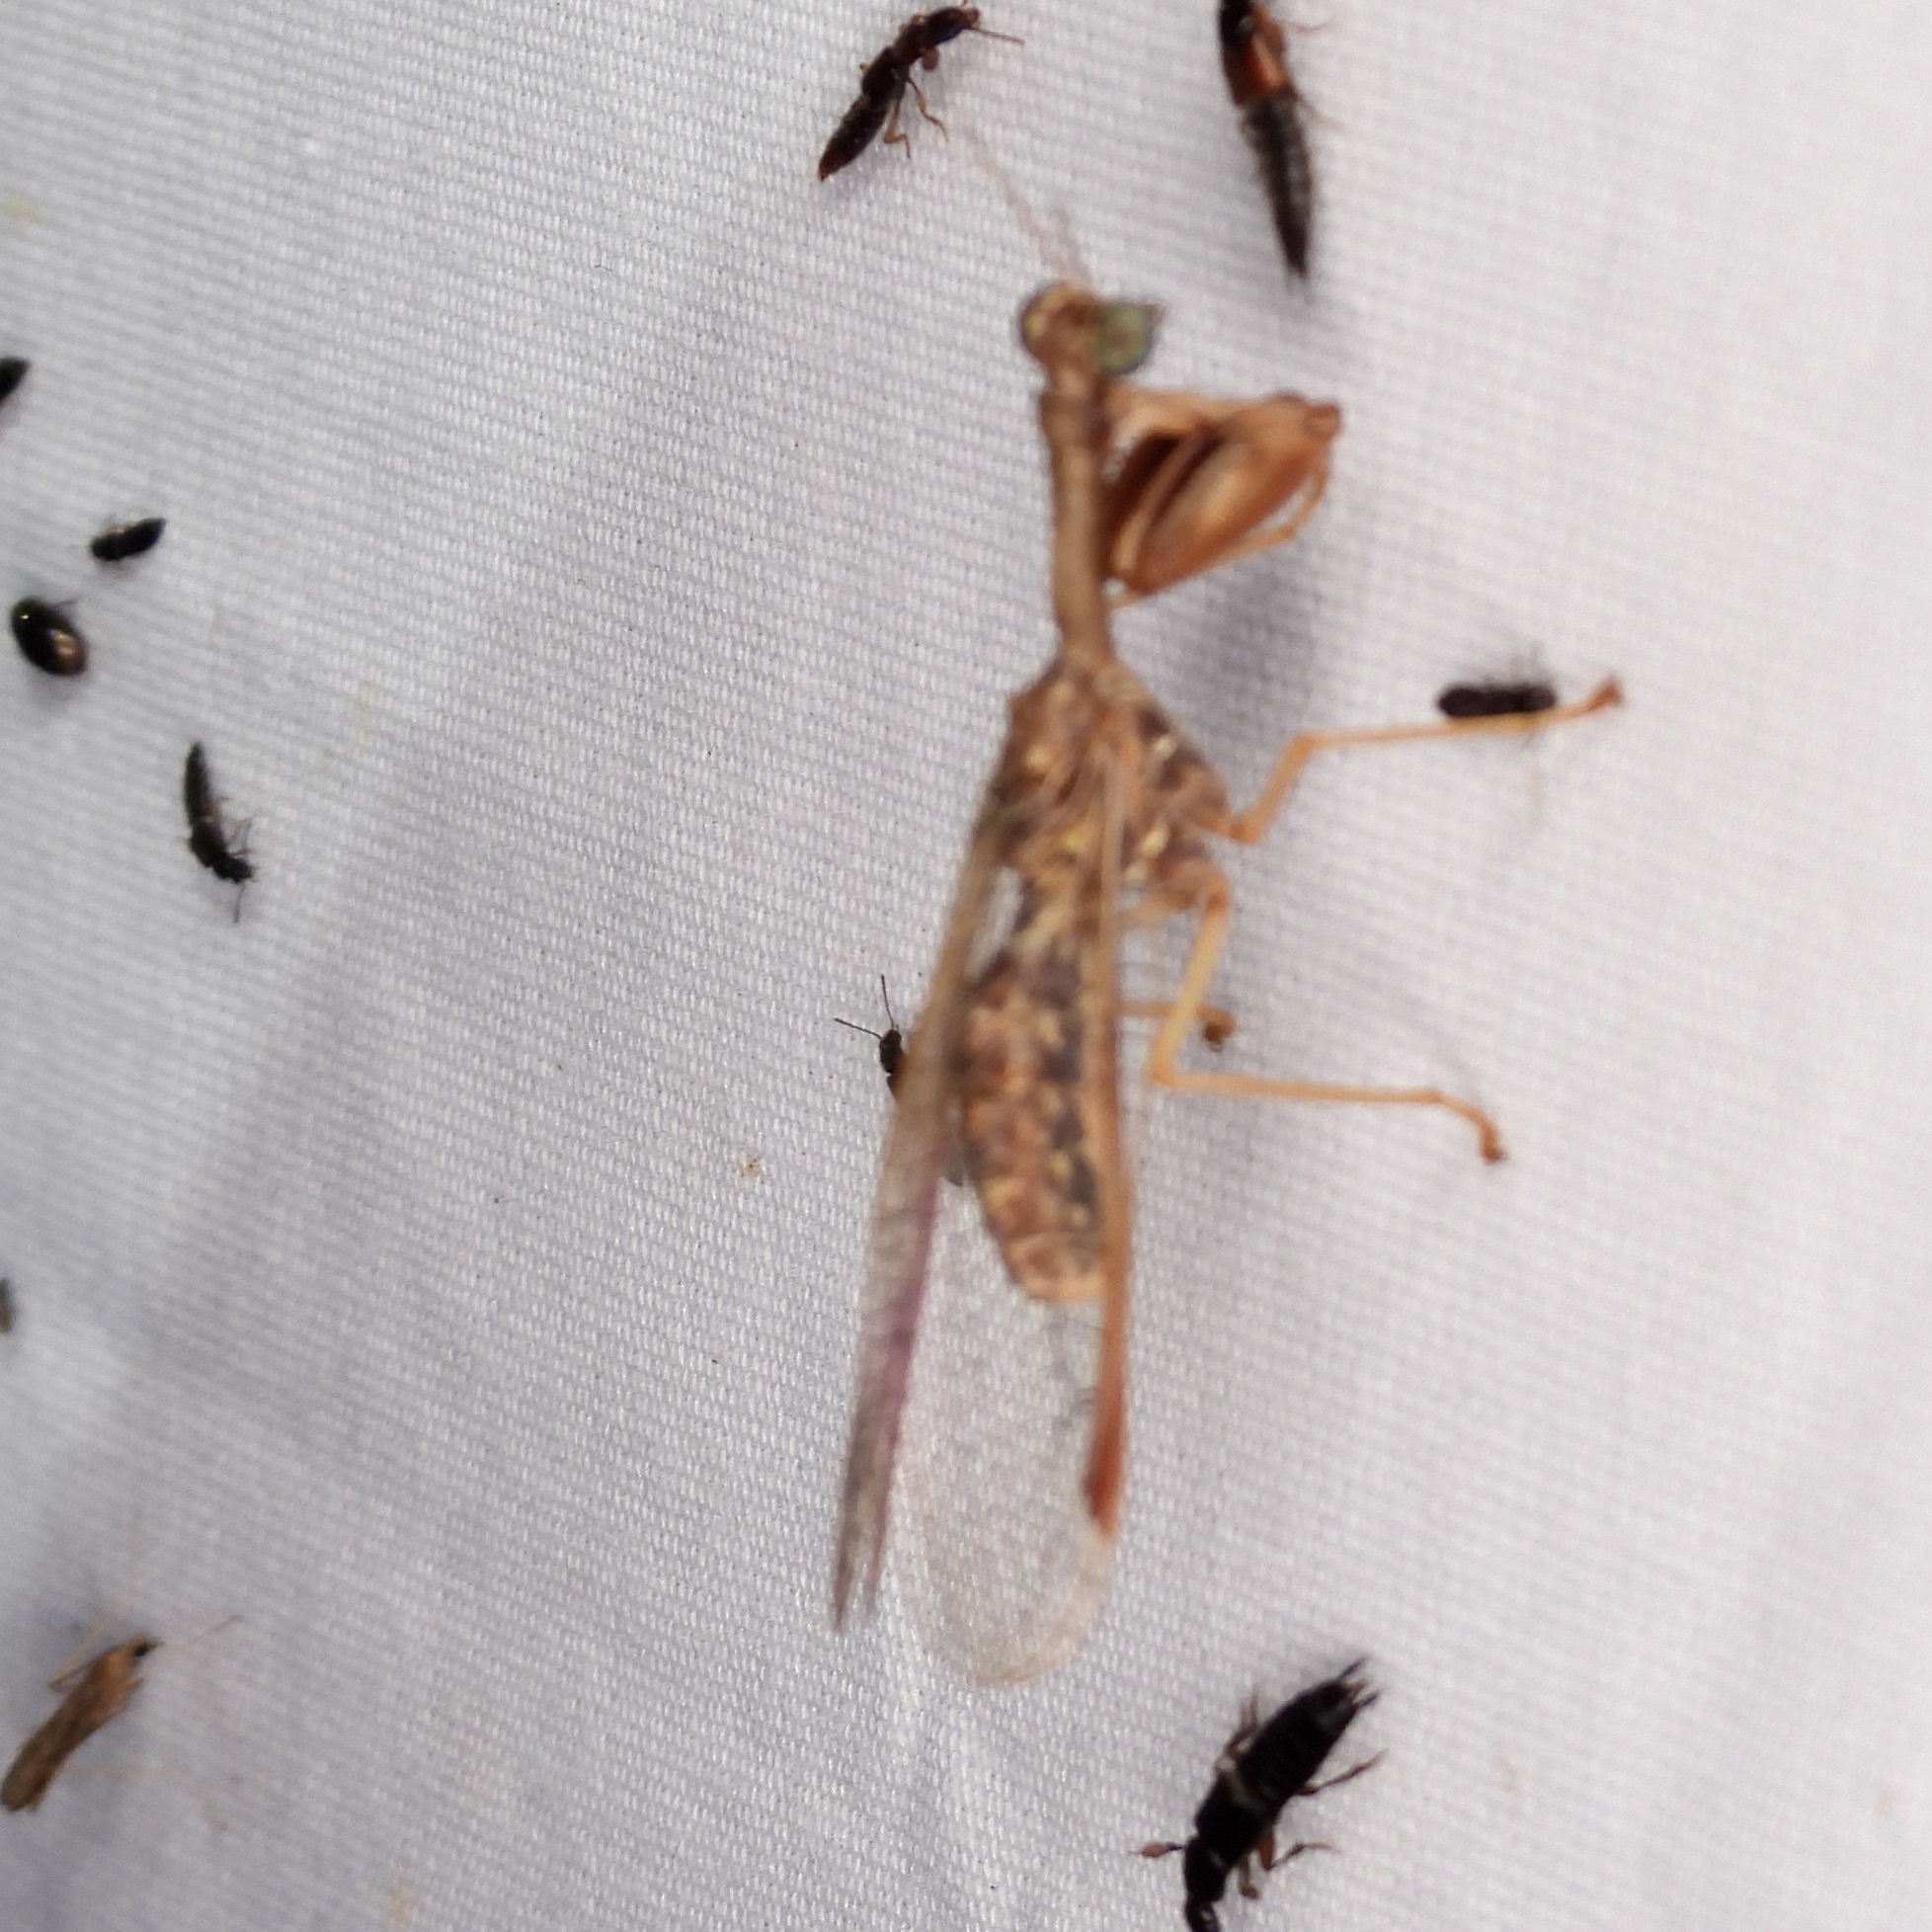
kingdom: Animalia
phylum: Arthropoda
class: Insecta
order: Neuroptera
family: Mantispidae
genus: Dicromantispa
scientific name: Dicromantispa sayi
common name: Say's mantidfly
